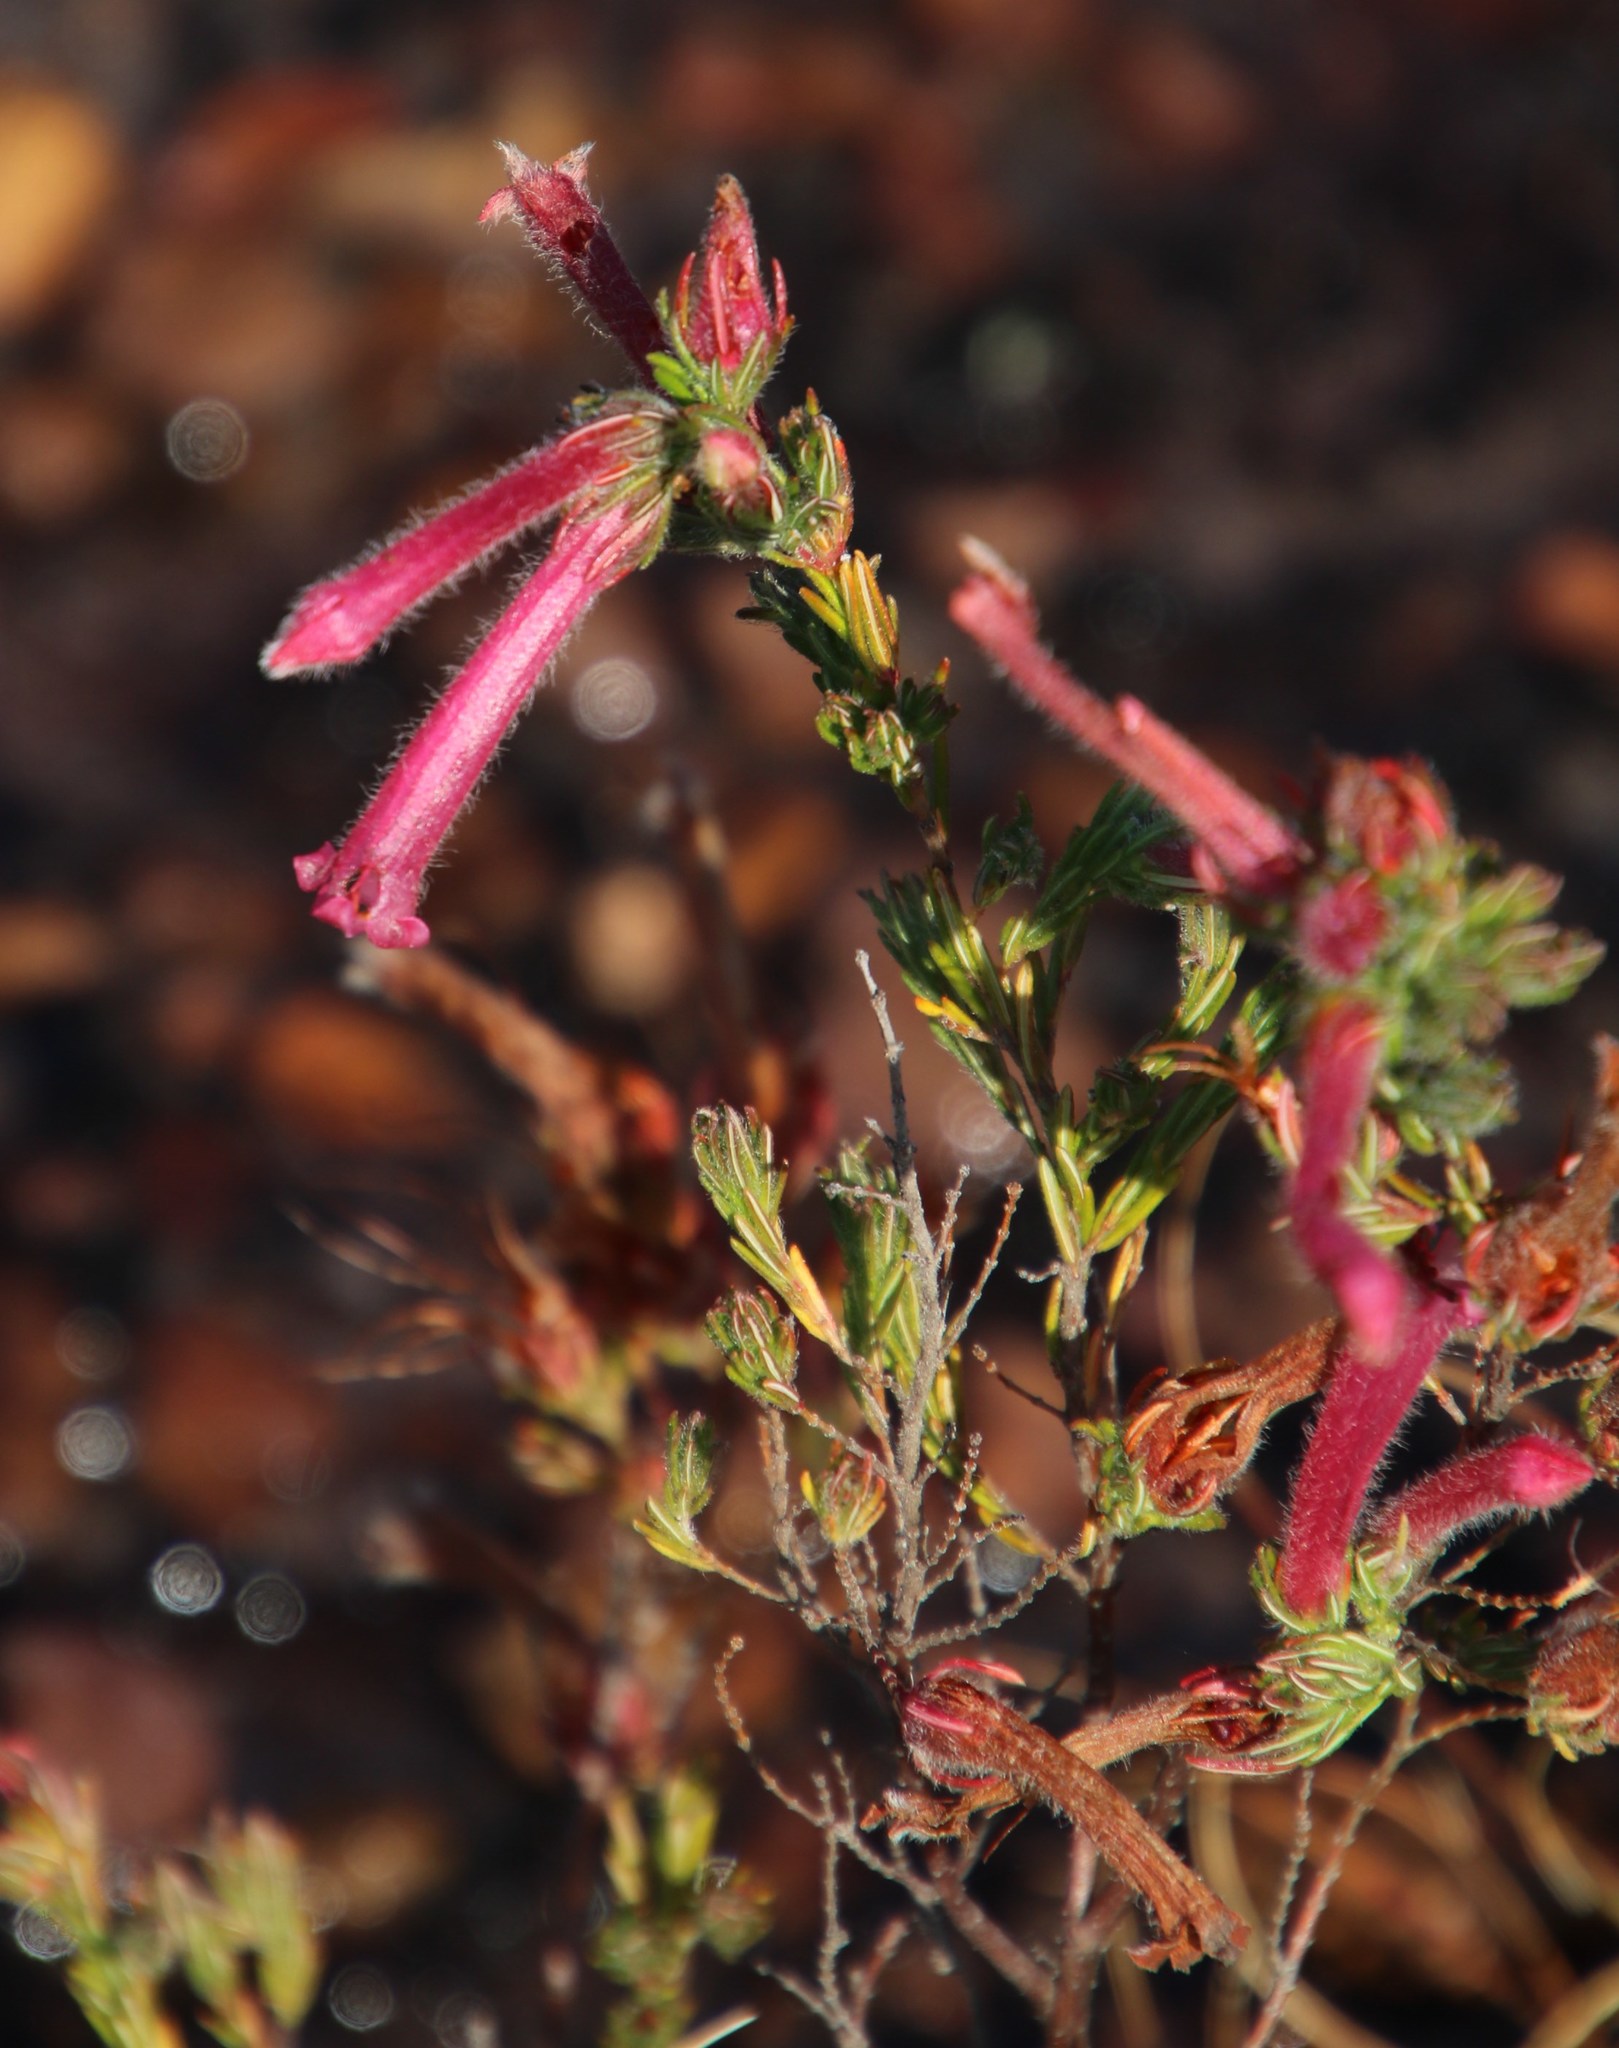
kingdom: Plantae
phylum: Tracheophyta
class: Magnoliopsida
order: Ericales
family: Ericaceae
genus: Erica
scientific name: Erica curviflora
